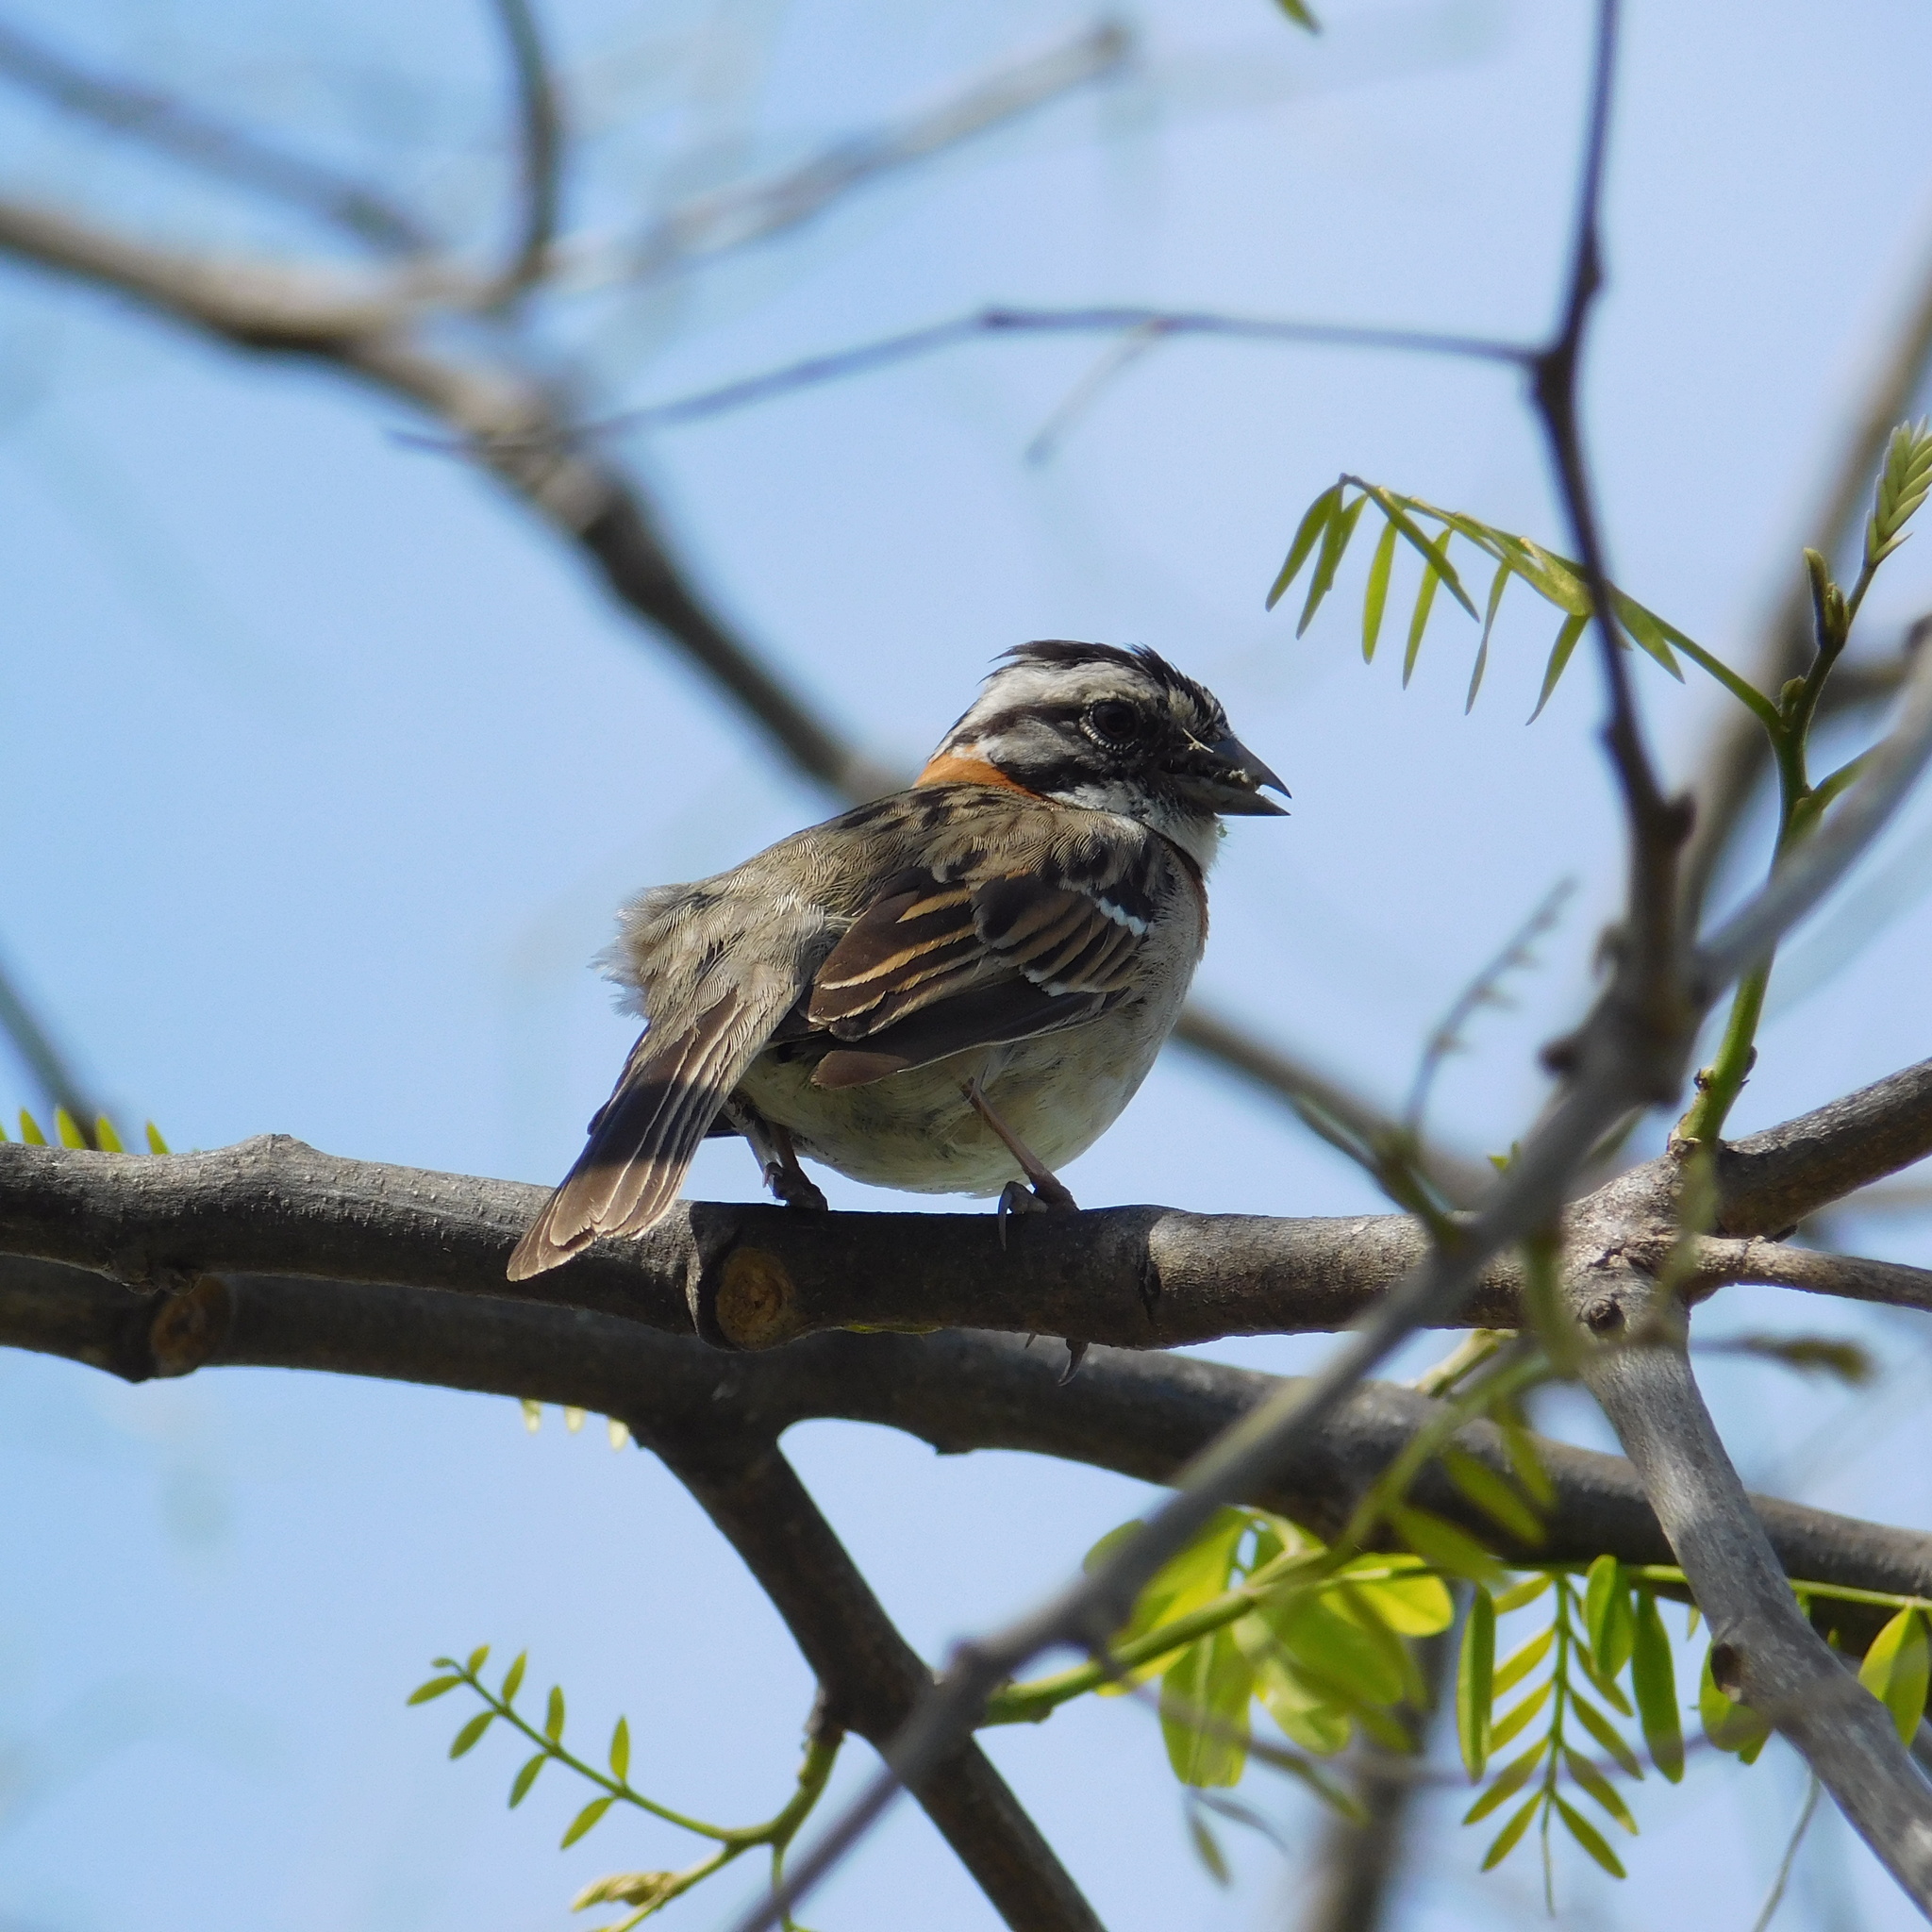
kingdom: Animalia
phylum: Chordata
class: Aves
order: Passeriformes
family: Passerellidae
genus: Zonotrichia
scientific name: Zonotrichia capensis
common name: Rufous-collared sparrow
